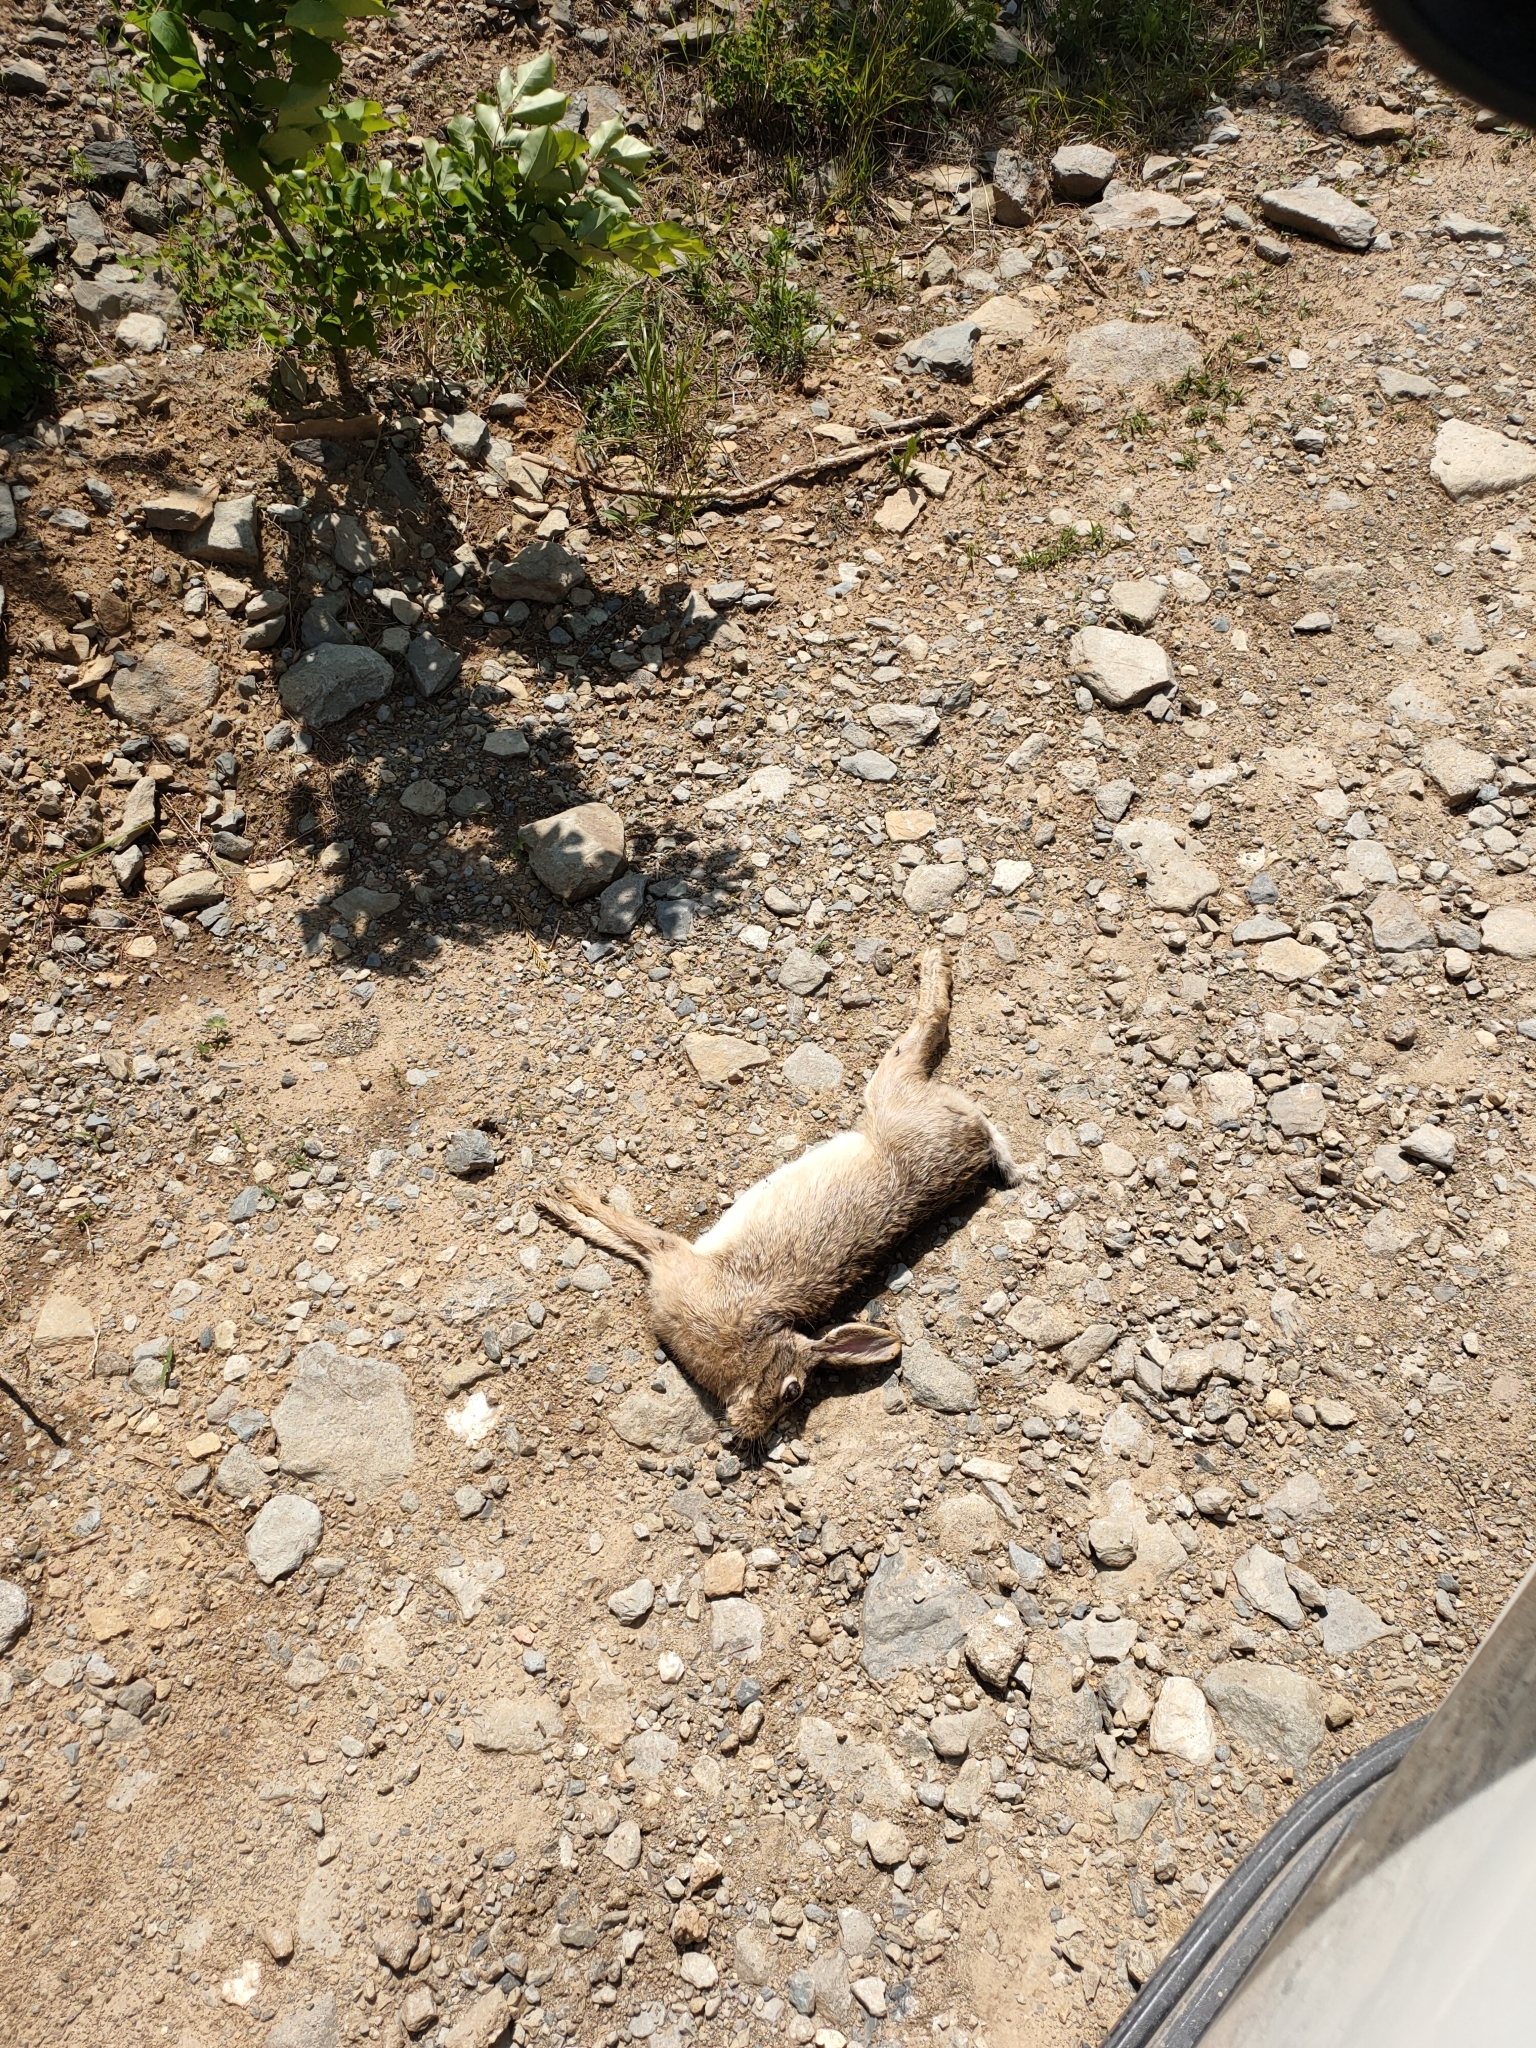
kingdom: Animalia
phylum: Chordata
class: Mammalia
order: Lagomorpha
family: Leporidae
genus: Lepus
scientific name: Lepus tolai
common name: Tolai hare
